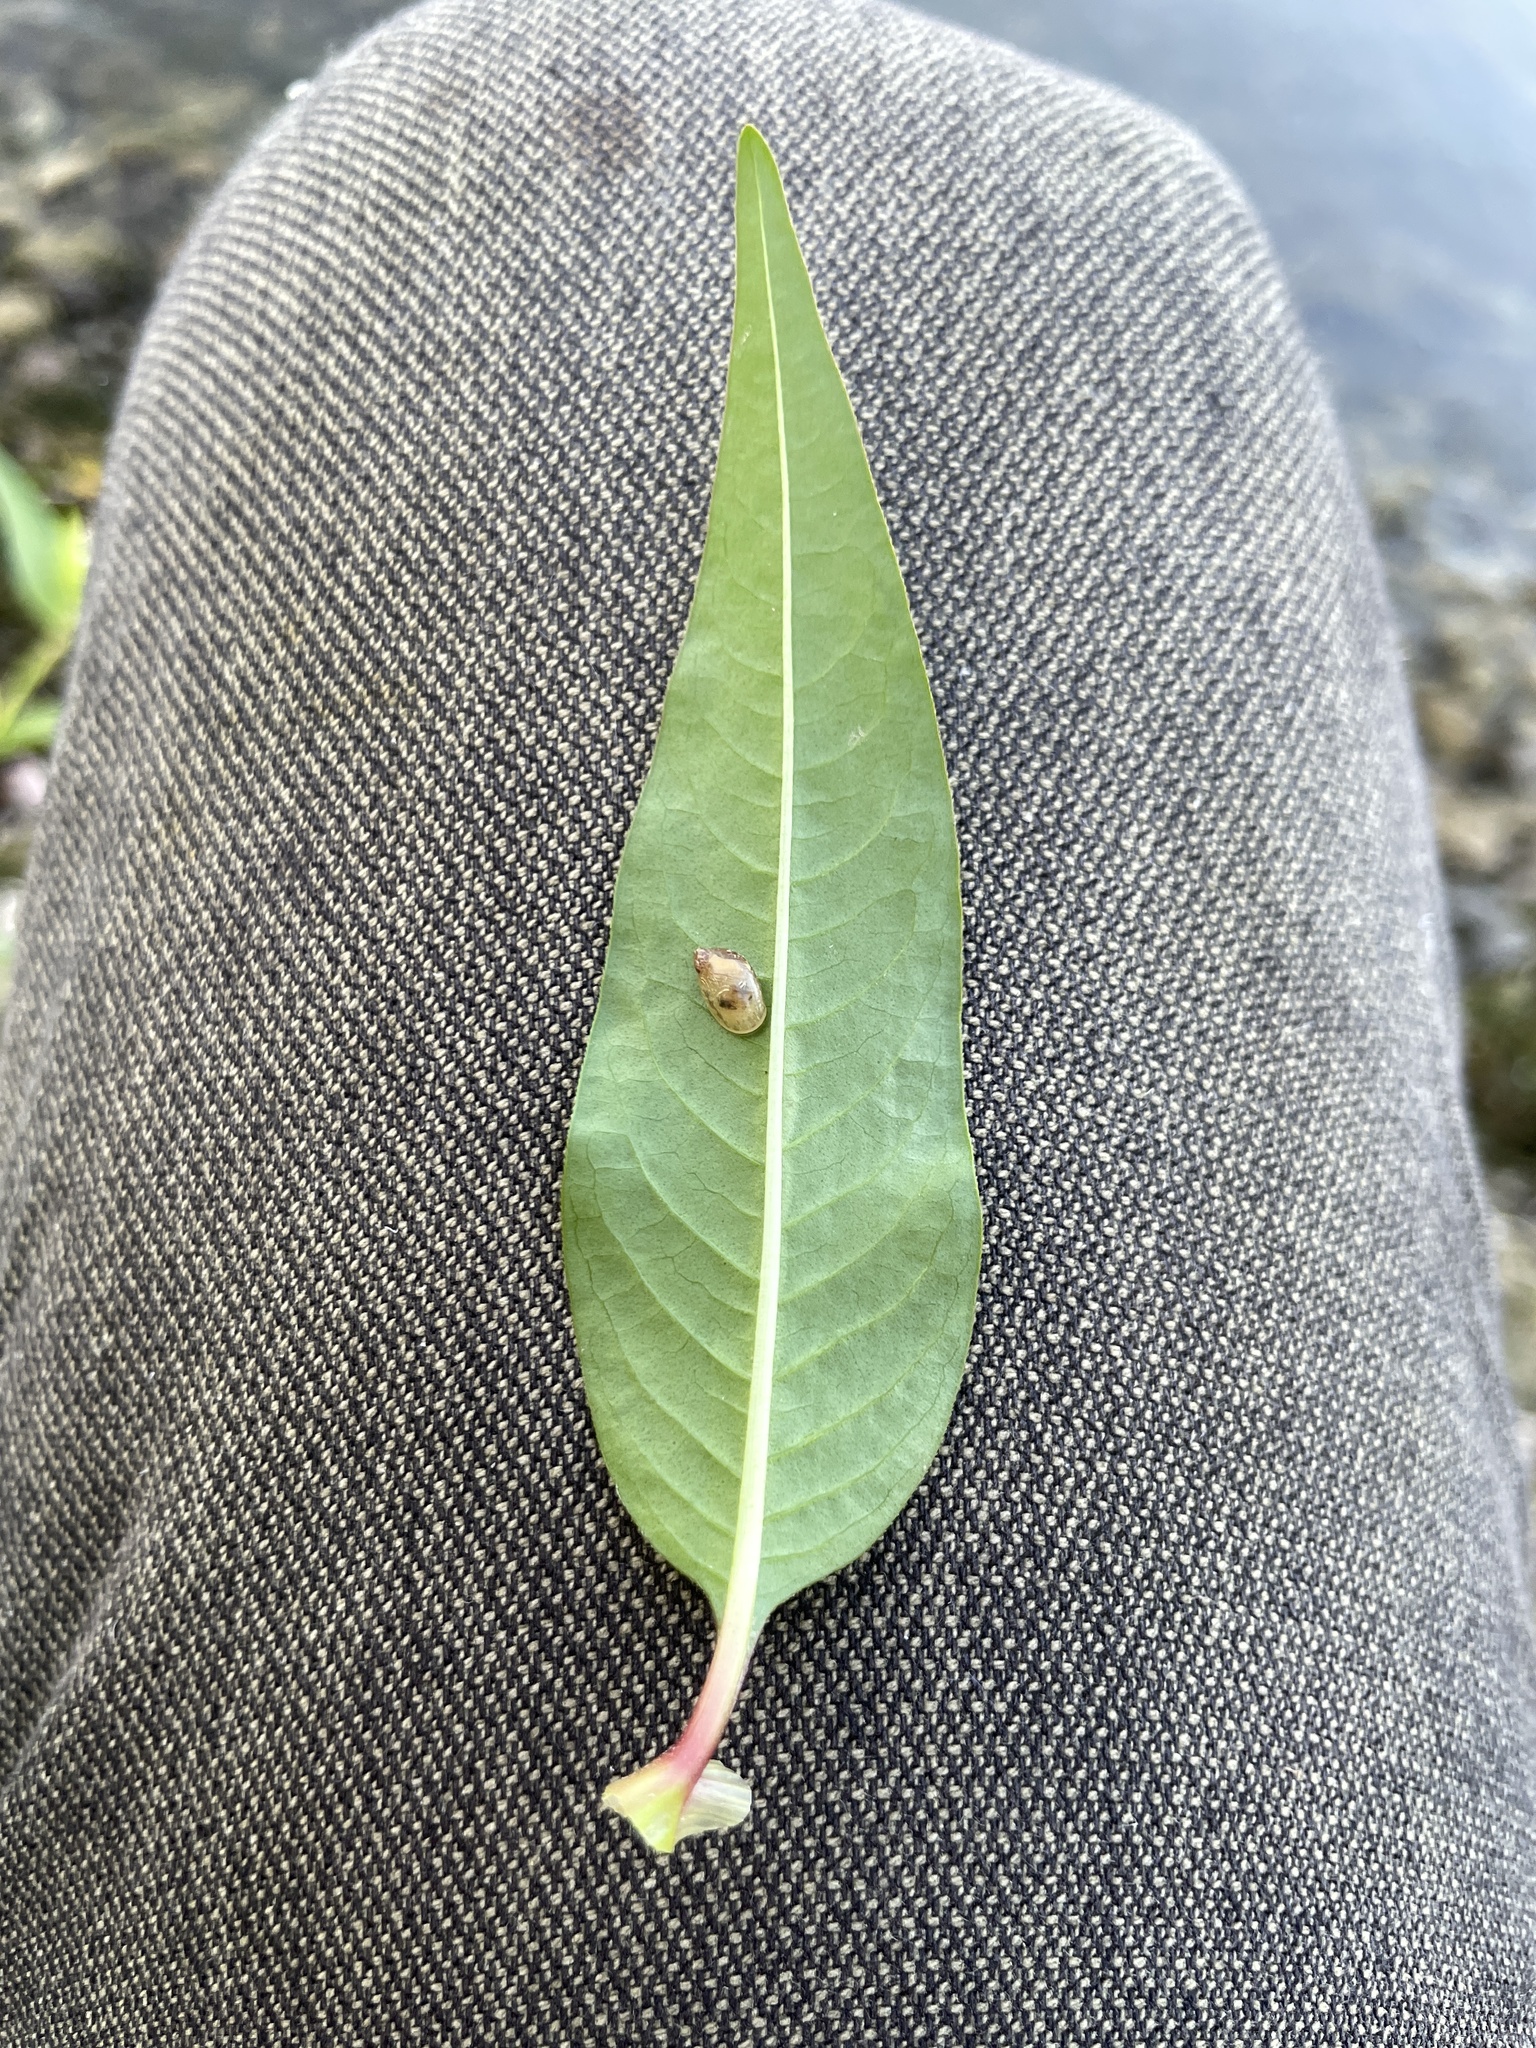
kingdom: Plantae
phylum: Tracheophyta
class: Magnoliopsida
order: Caryophyllales
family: Polygonaceae
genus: Persicaria
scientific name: Persicaria pensylvanica
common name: Pinkweed
